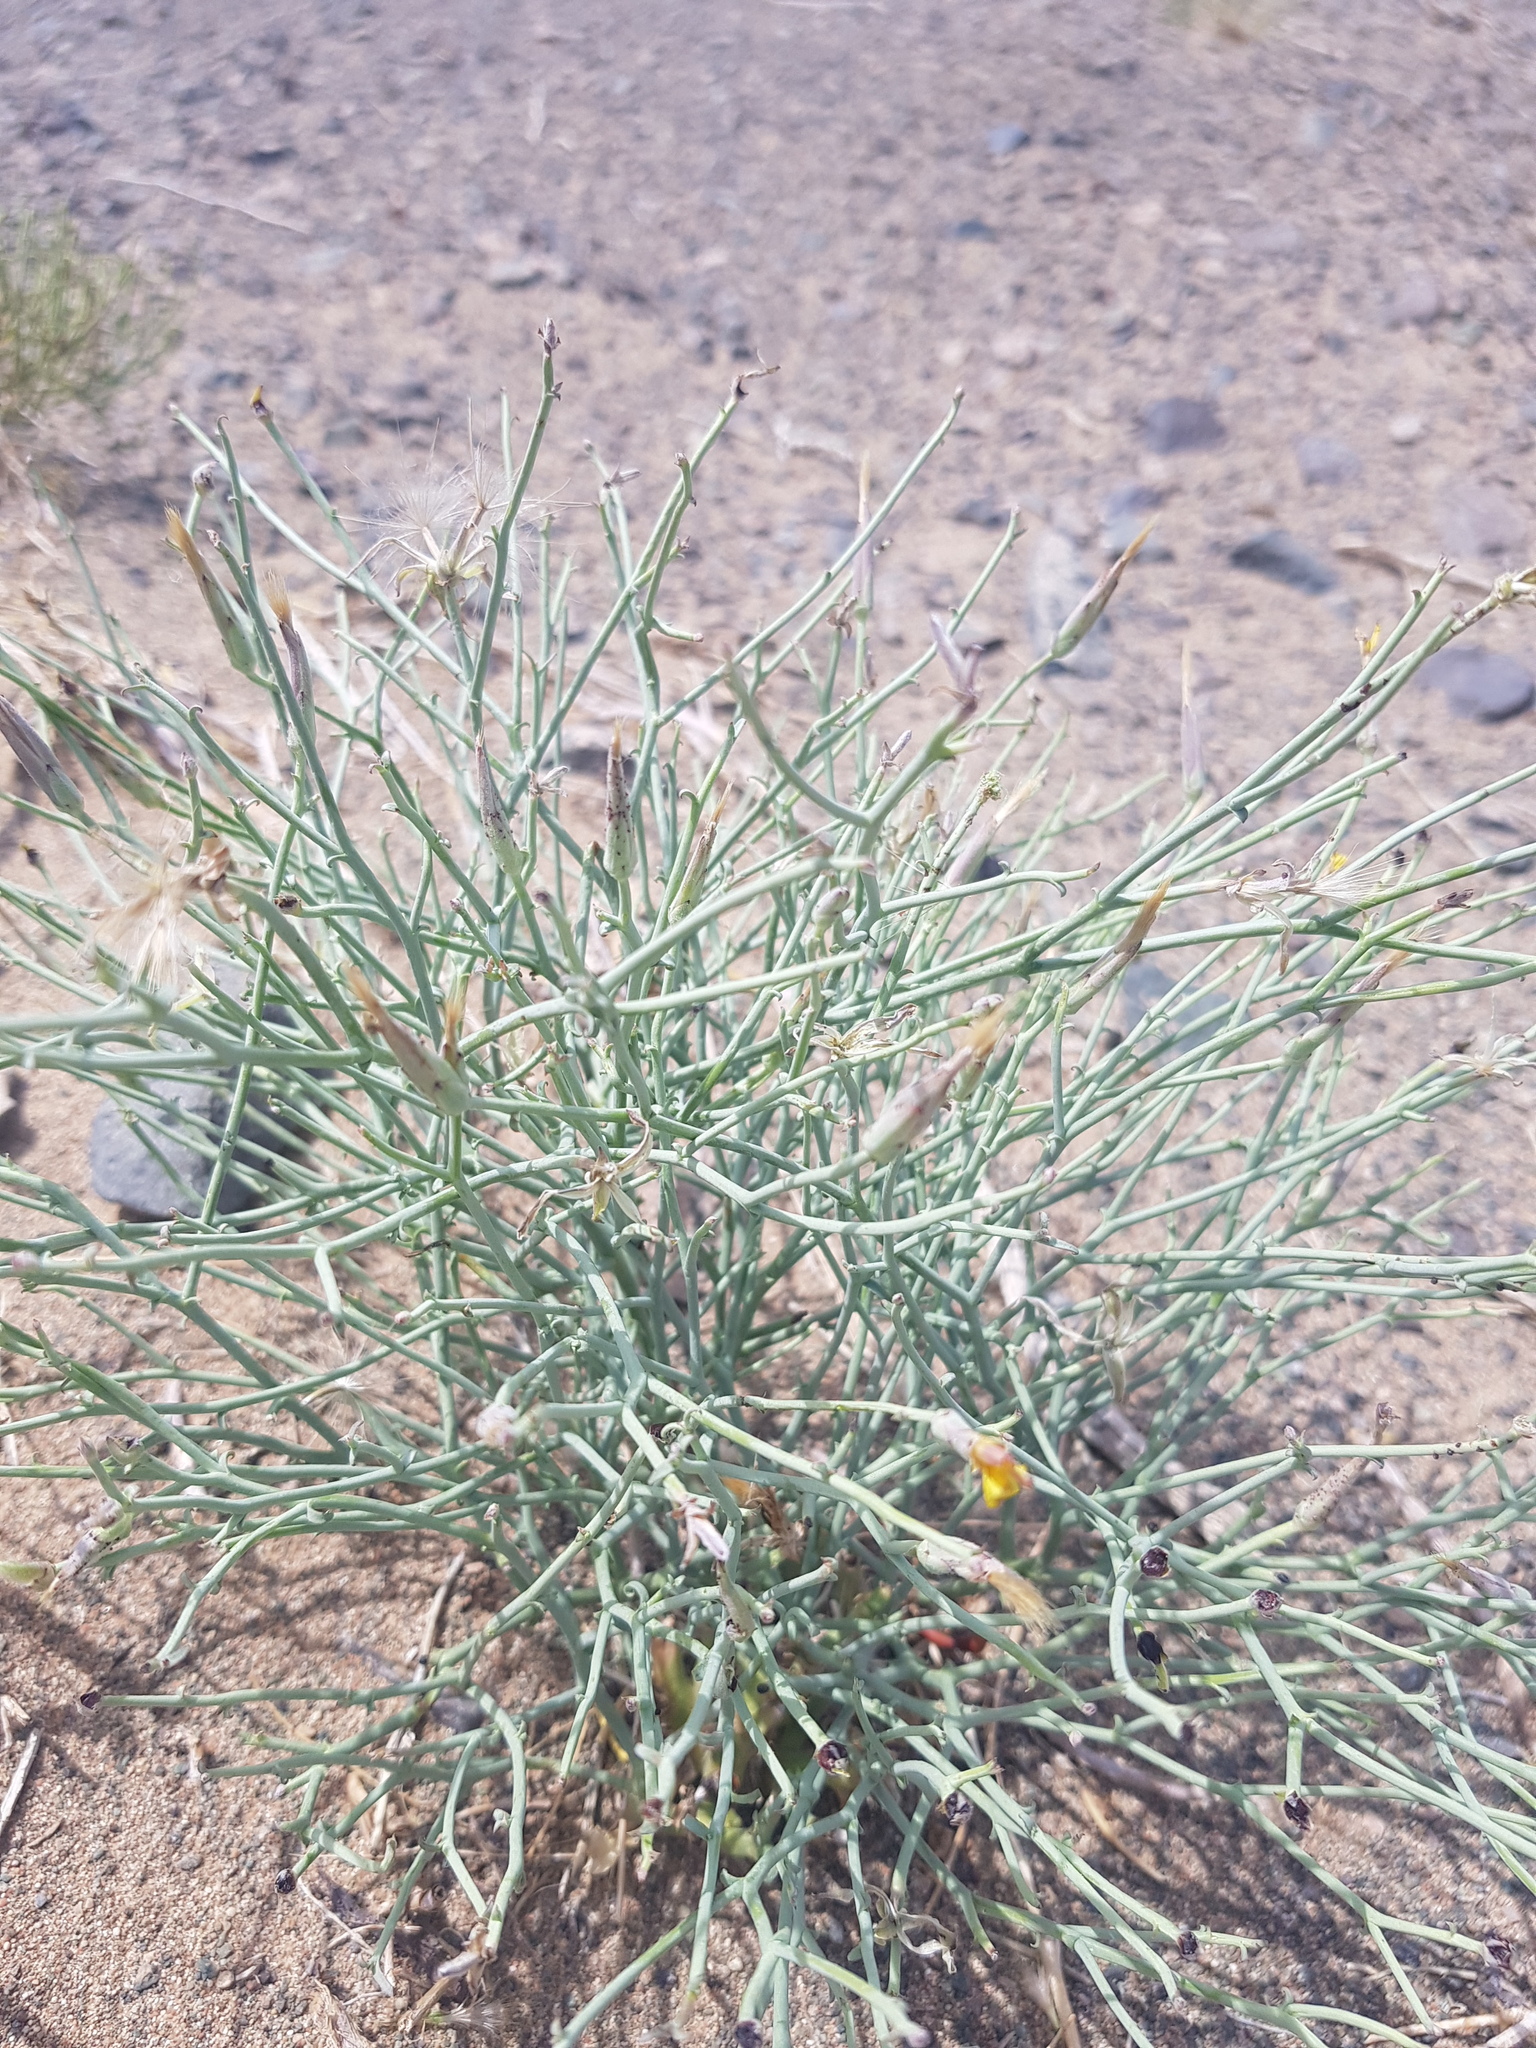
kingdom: Plantae
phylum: Tracheophyta
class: Magnoliopsida
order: Asterales
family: Asteraceae
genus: Takhtajaniantha
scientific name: Takhtajaniantha pseudodivaricata
